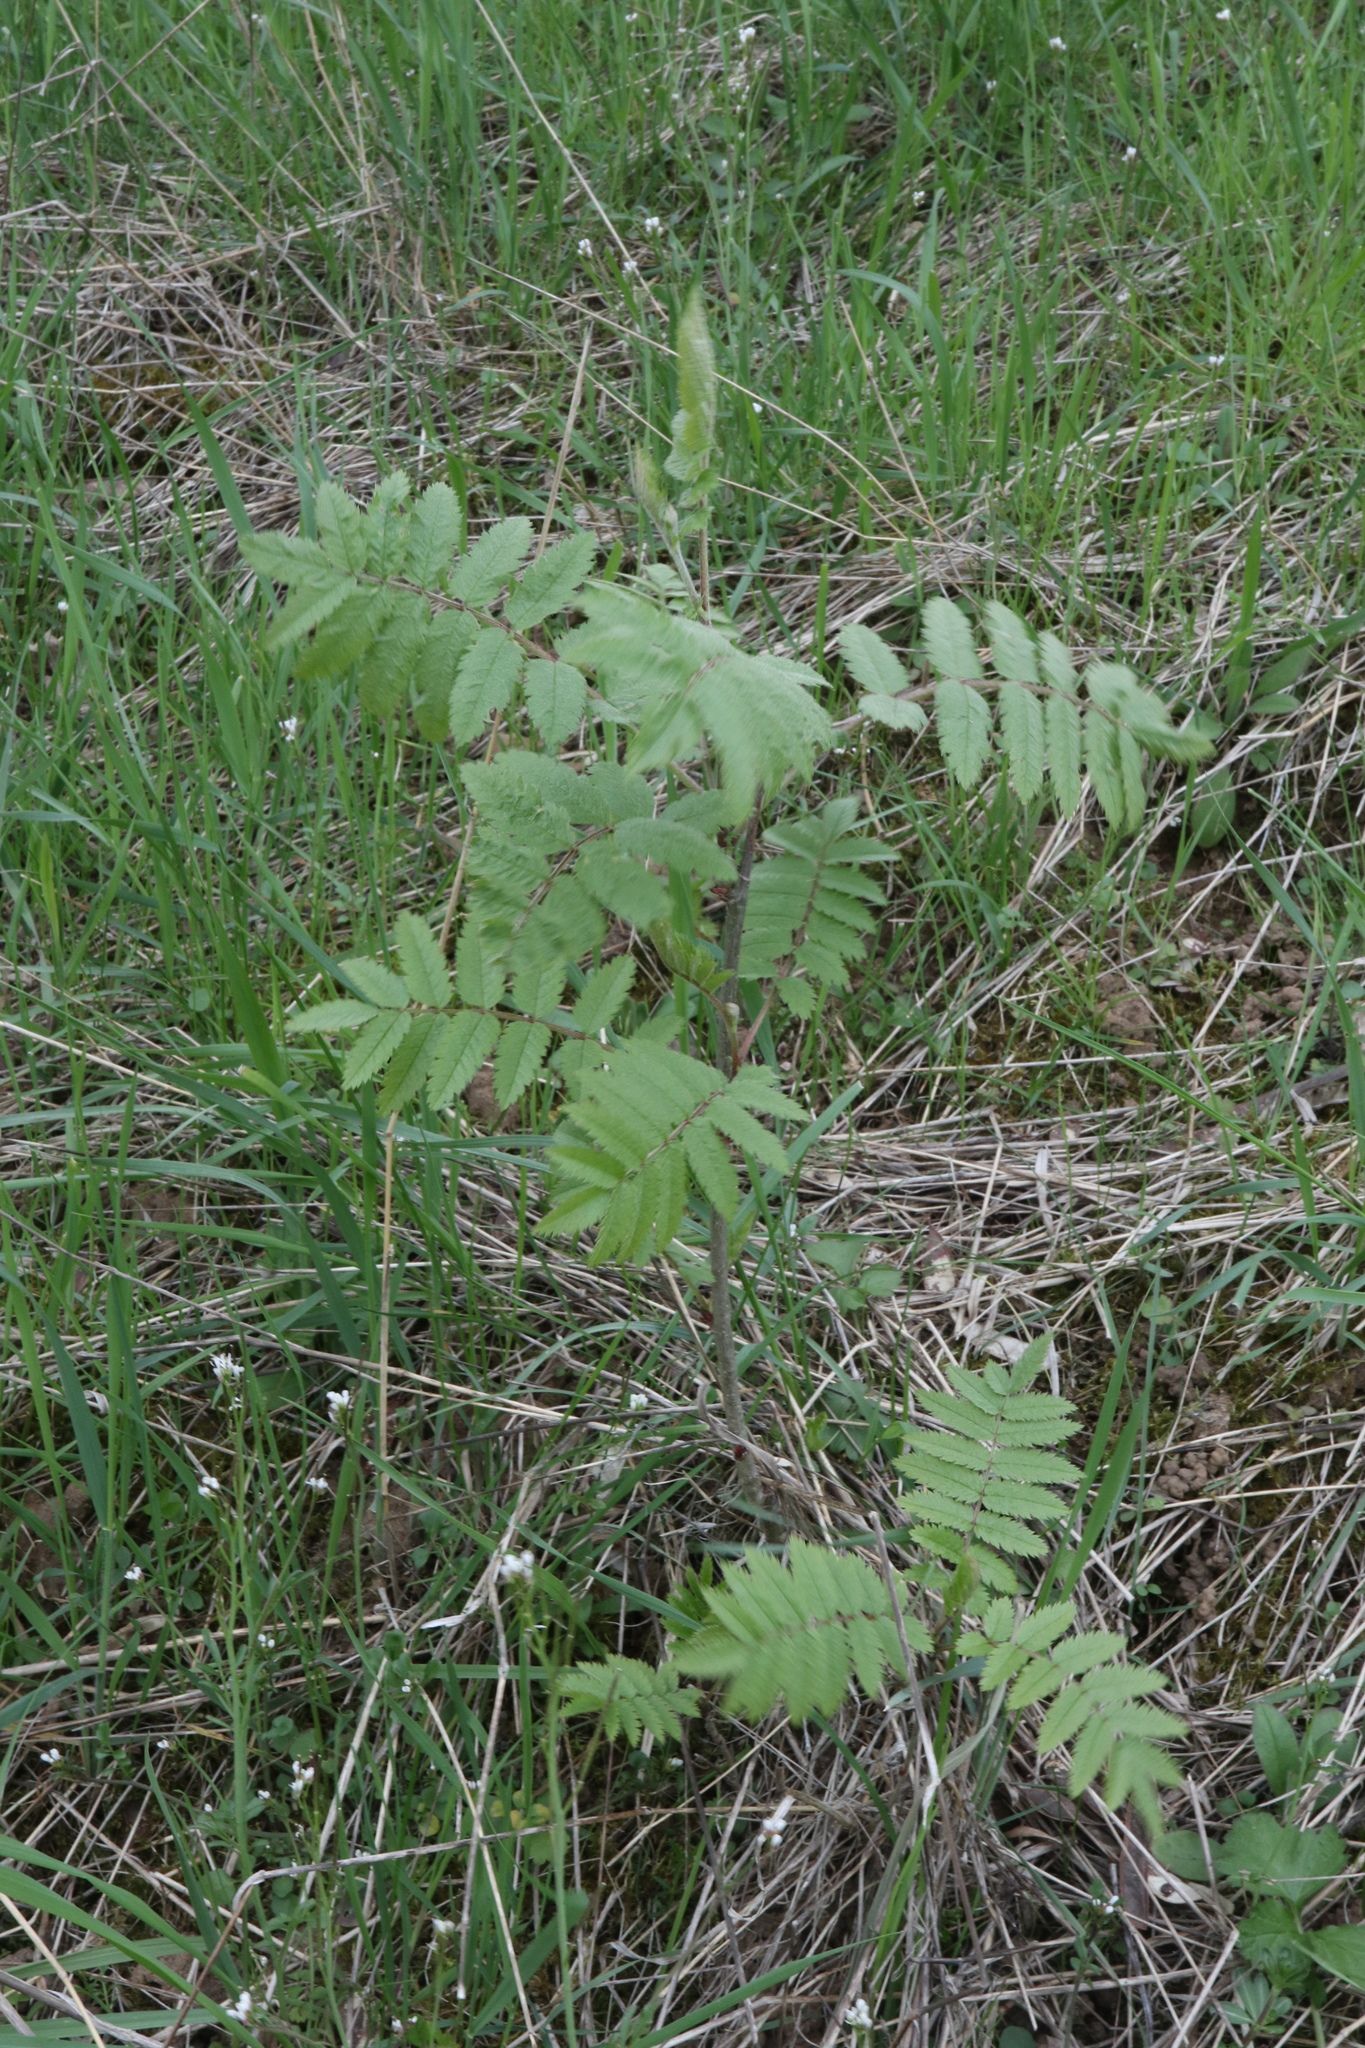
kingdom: Plantae
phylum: Tracheophyta
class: Magnoliopsida
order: Rosales
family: Rosaceae
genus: Sorbus
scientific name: Sorbus aucuparia
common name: Rowan
